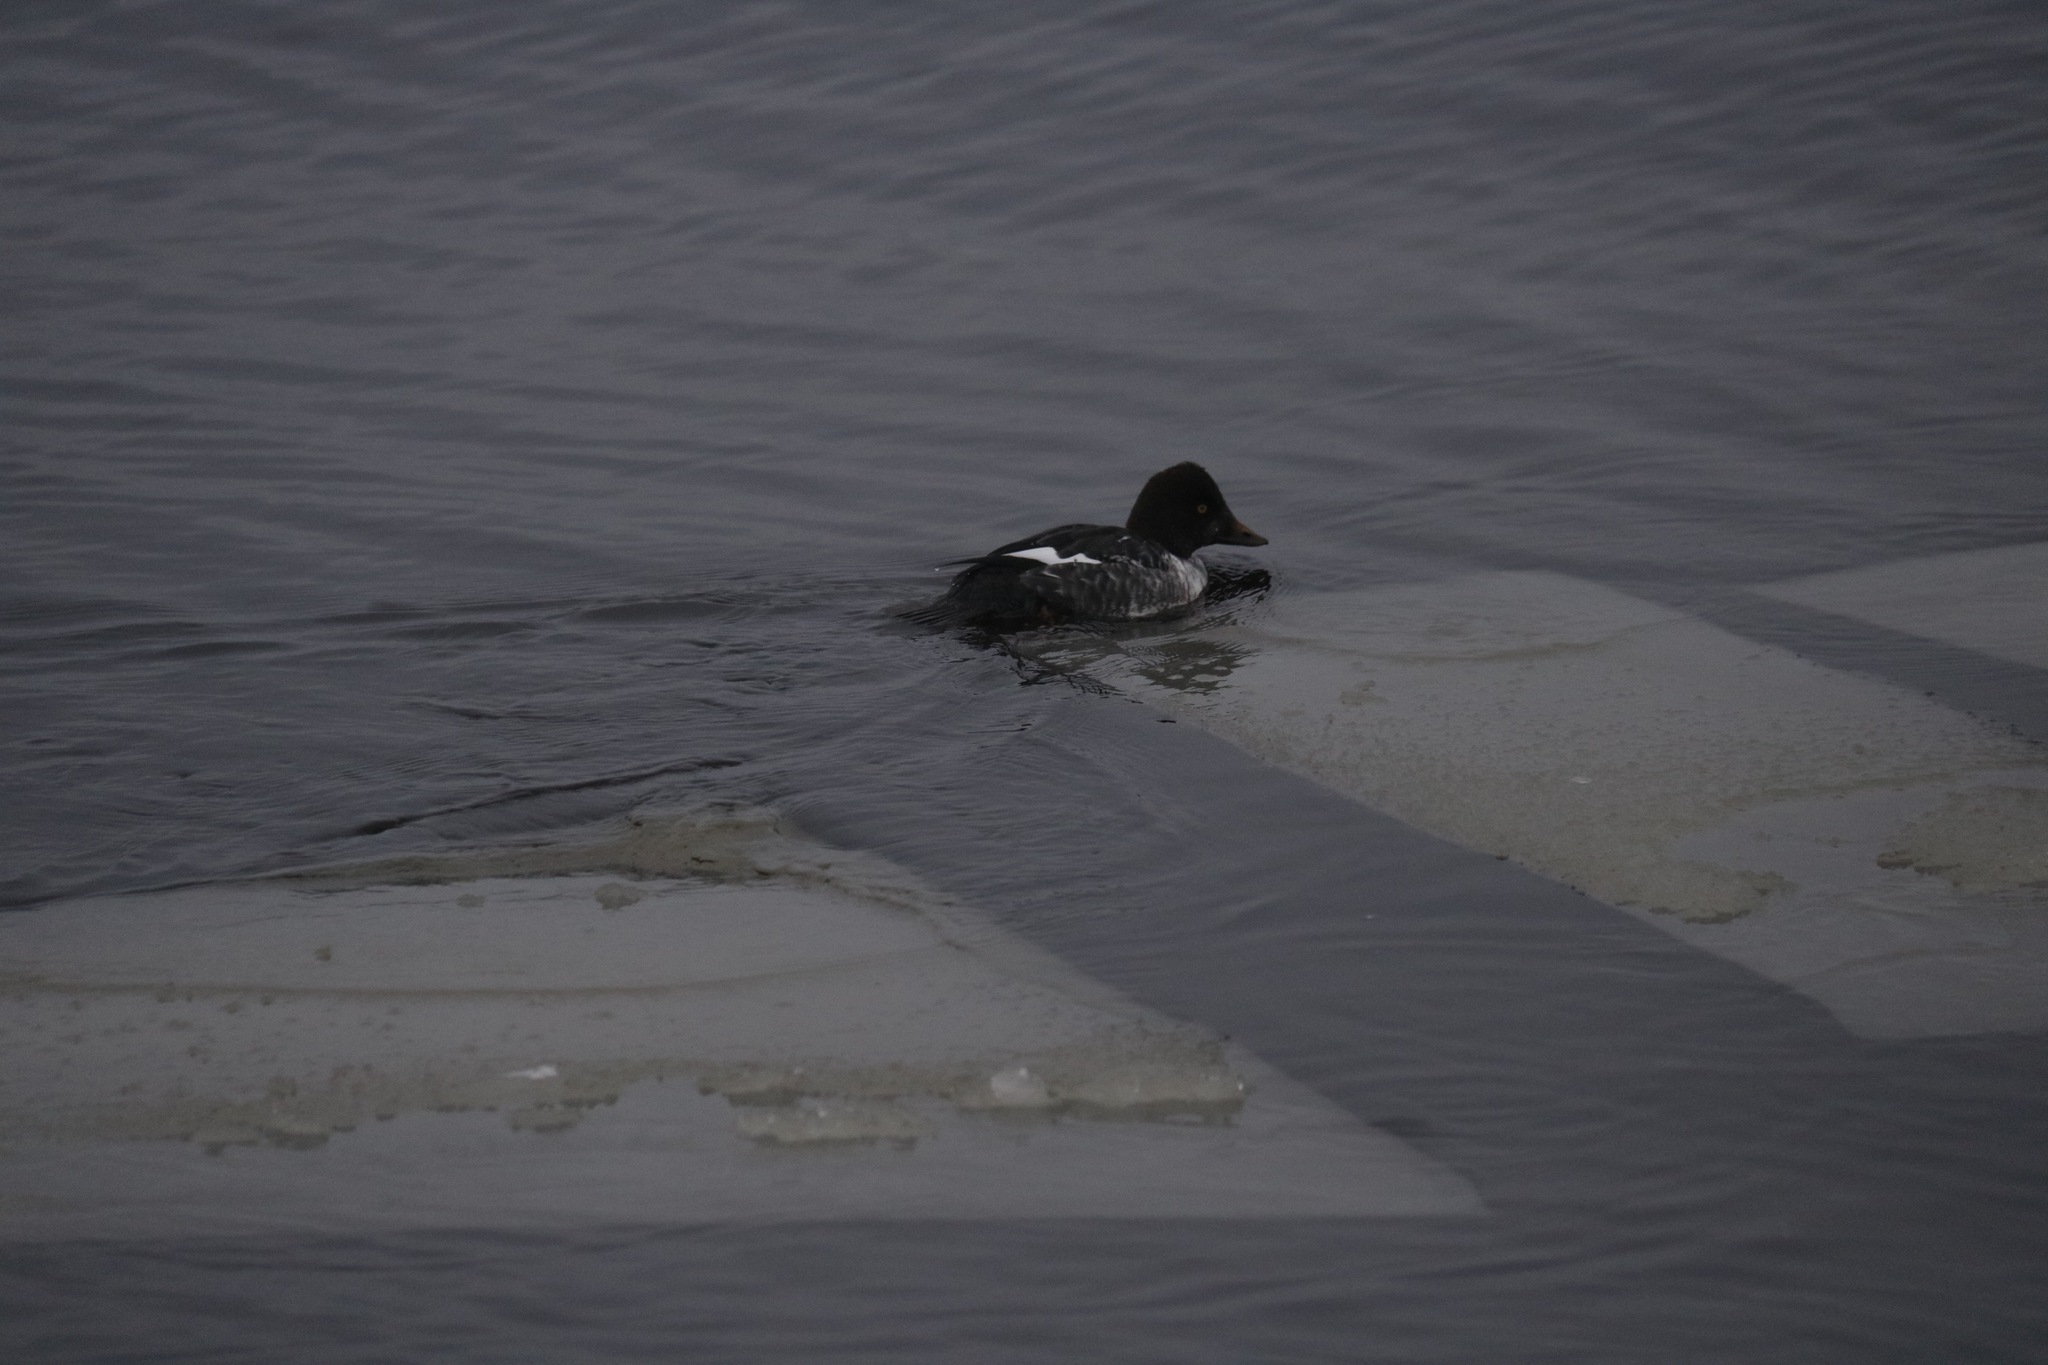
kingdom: Animalia
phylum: Chordata
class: Aves
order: Anseriformes
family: Anatidae
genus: Bucephala
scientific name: Bucephala clangula
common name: Common goldeneye
